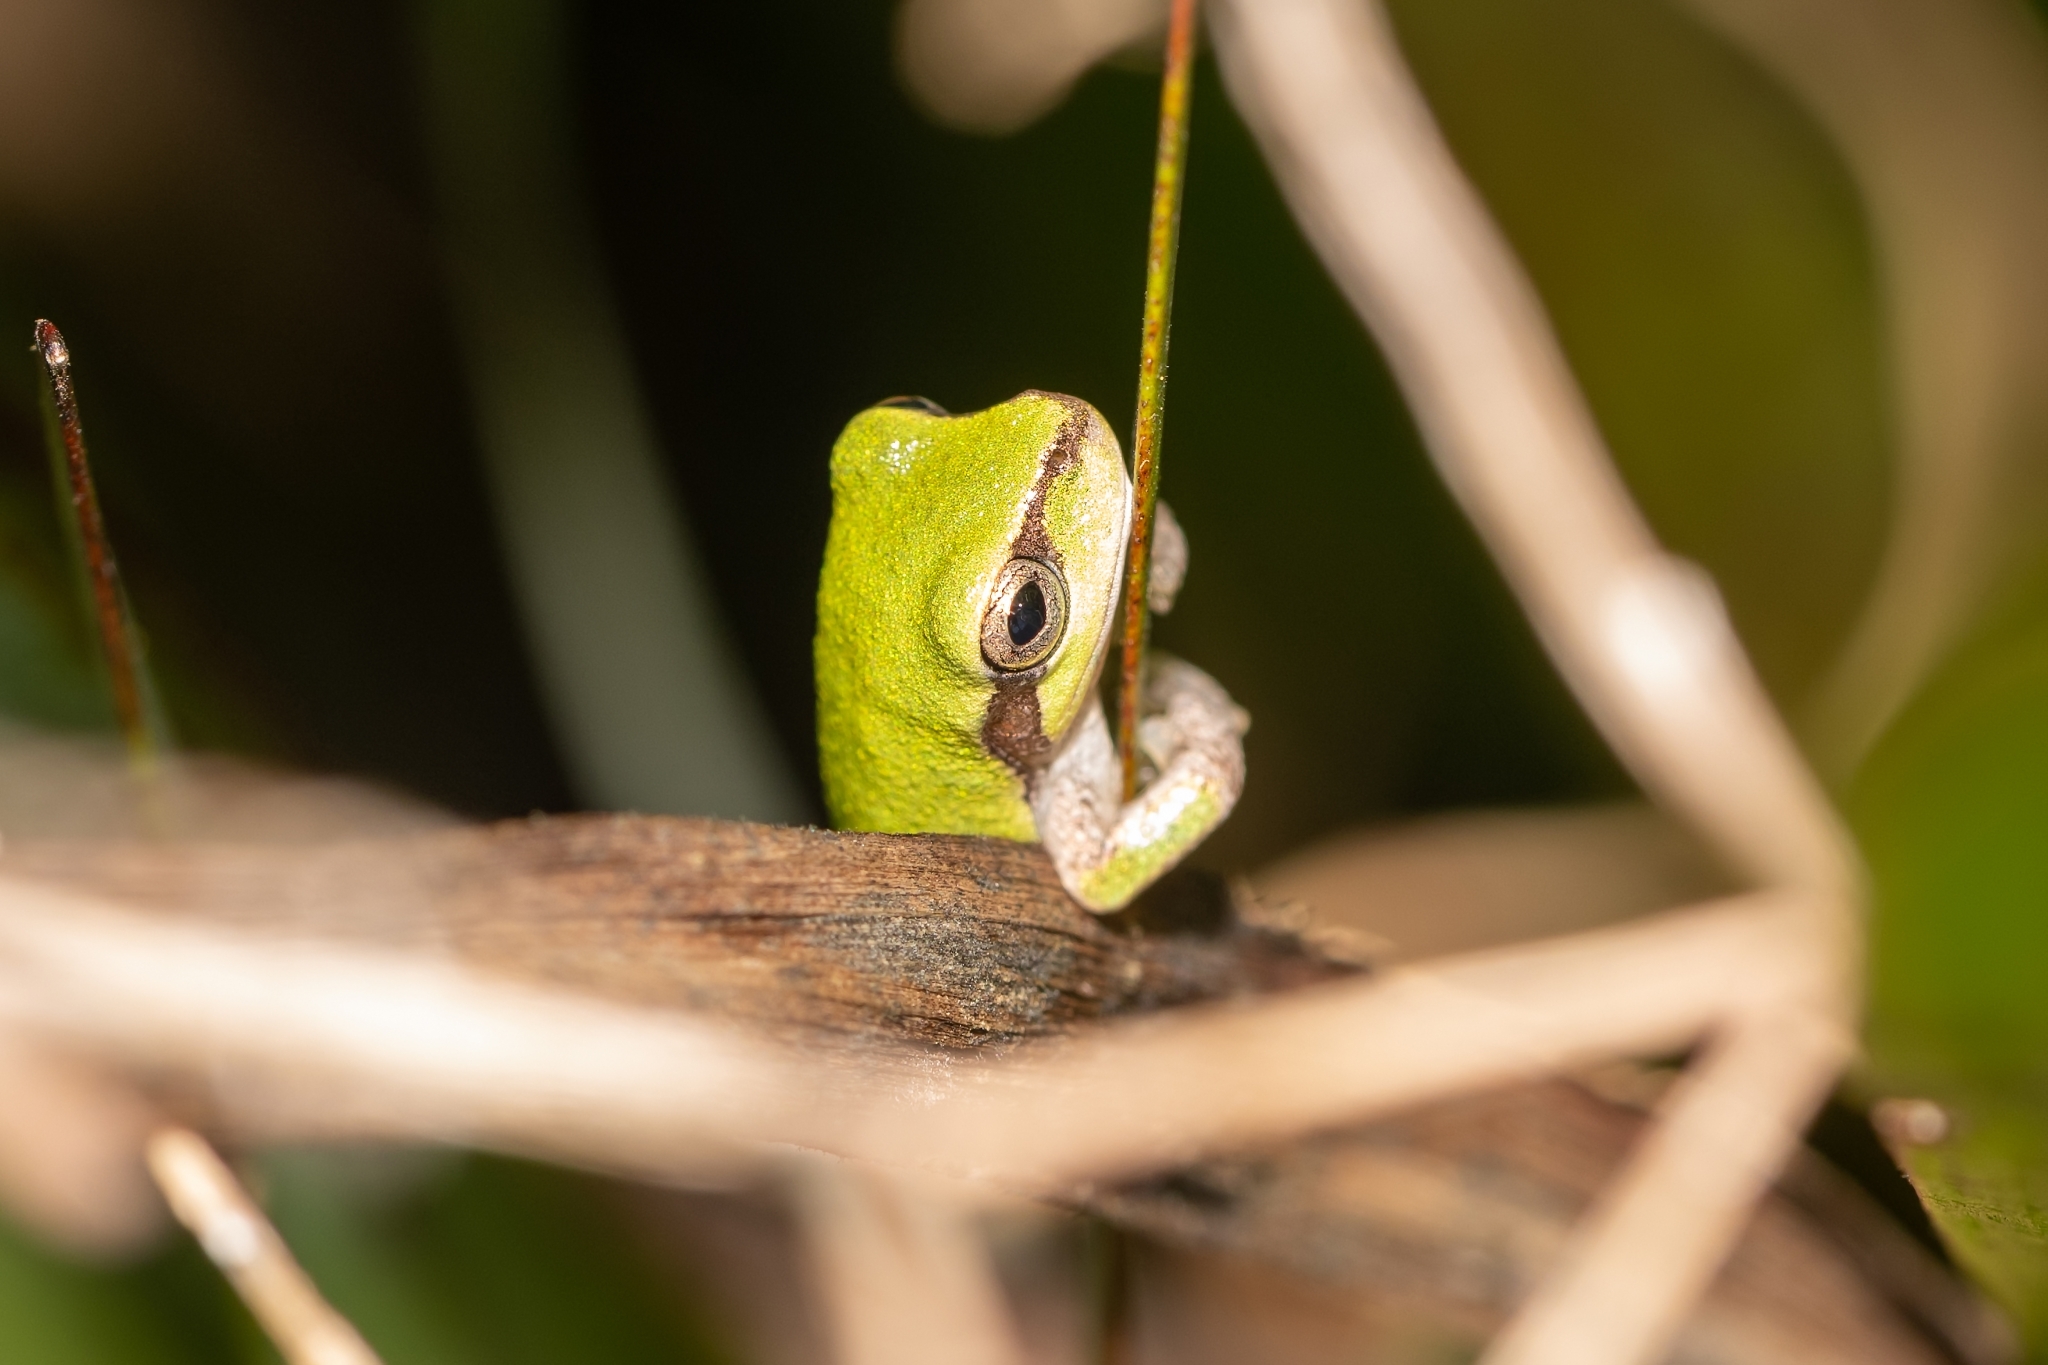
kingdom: Animalia
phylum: Chordata
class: Amphibia
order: Anura
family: Hylidae
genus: Hyla
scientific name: Hyla femoralis
